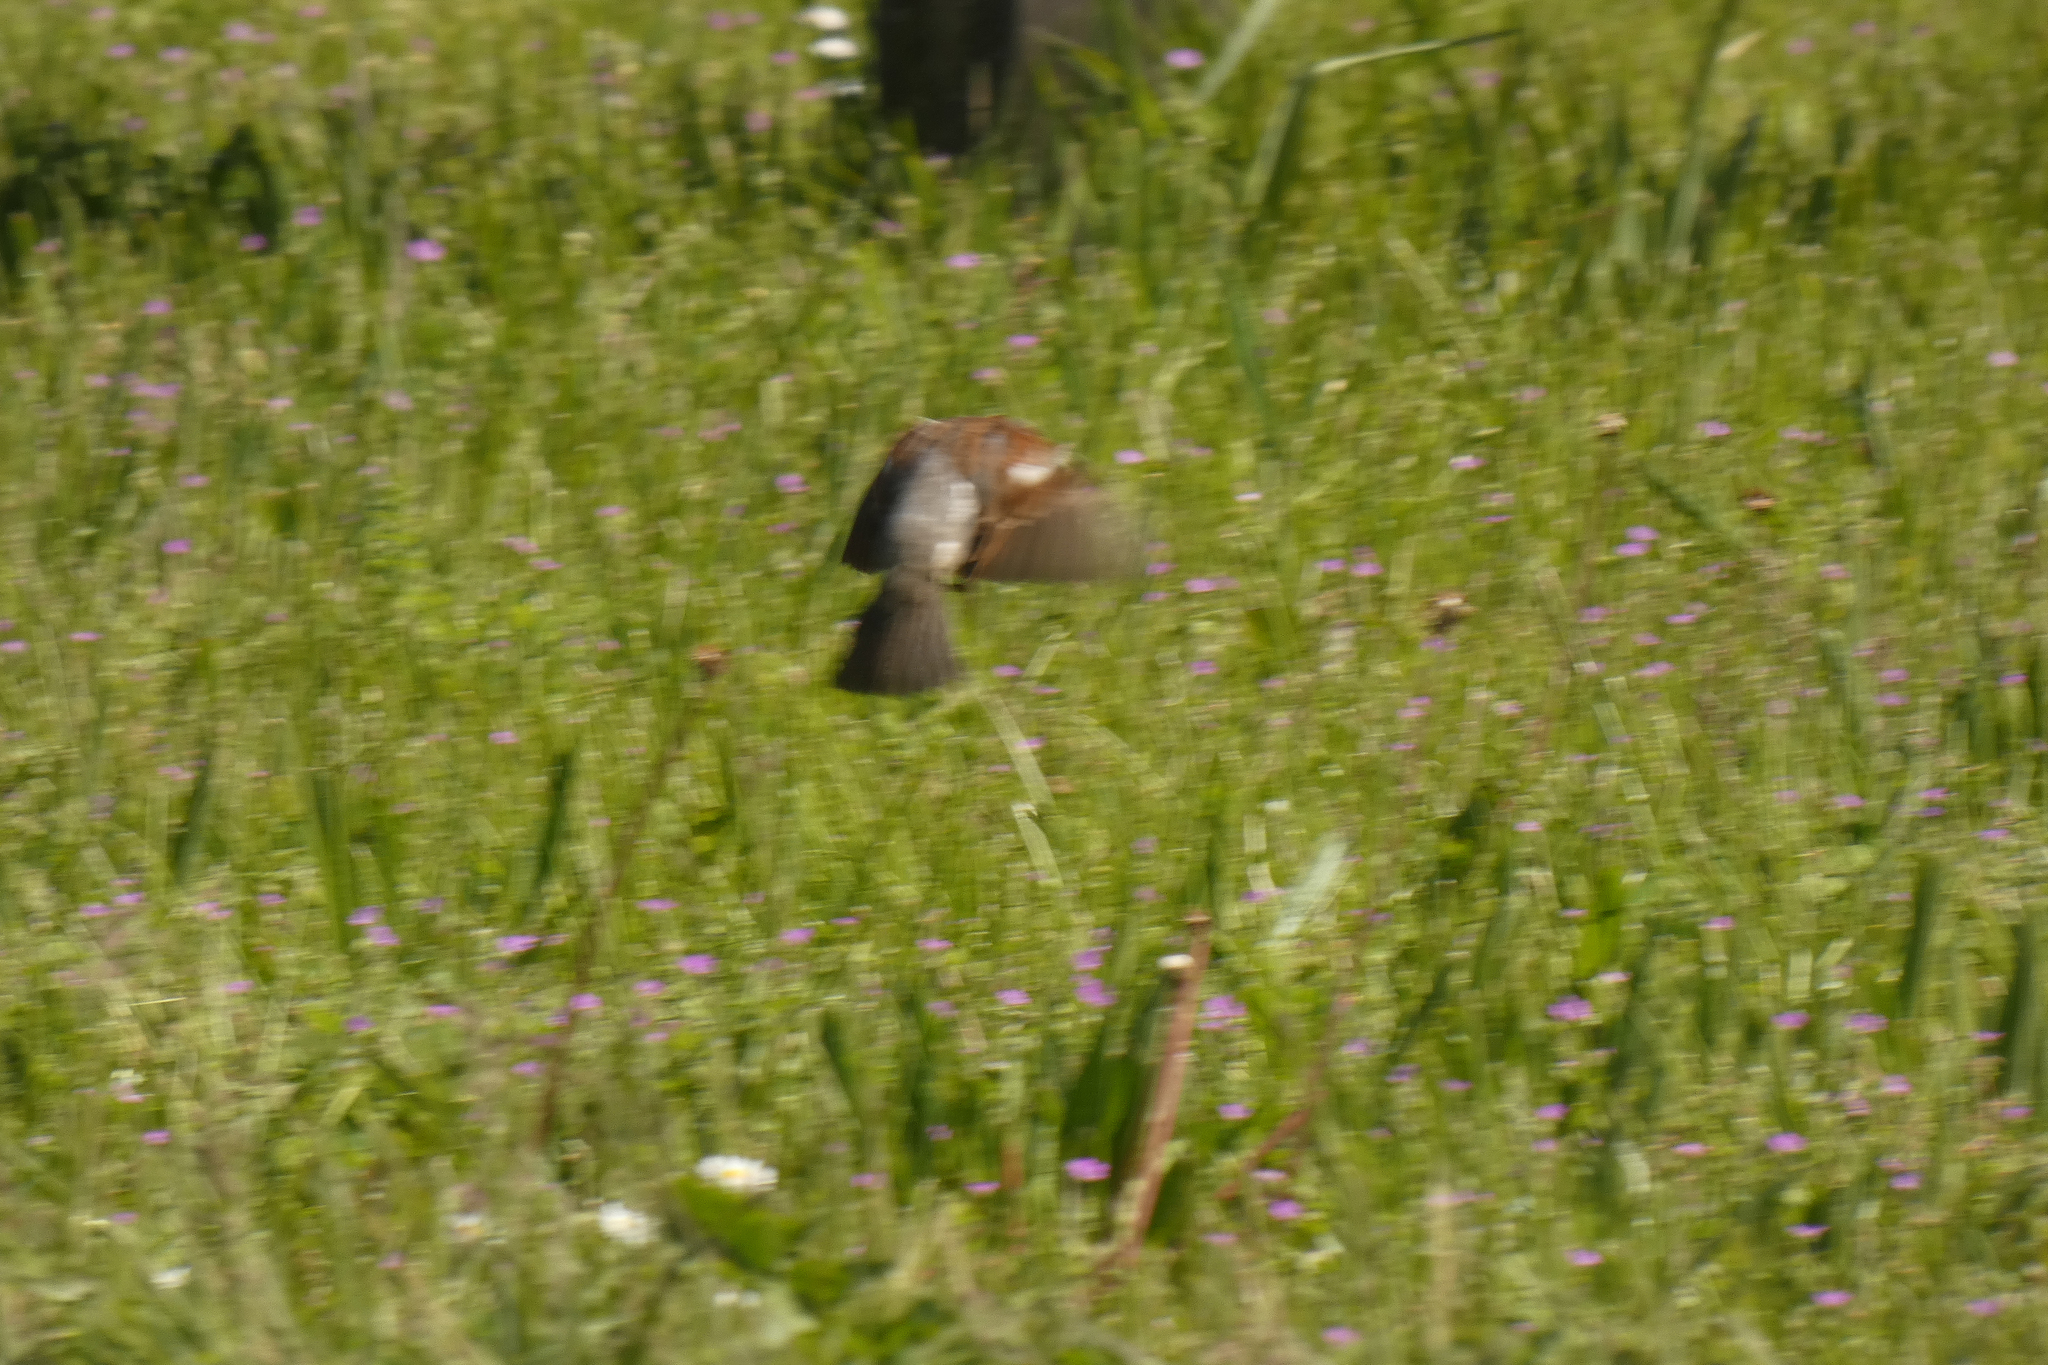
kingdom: Animalia
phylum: Chordata
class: Aves
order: Passeriformes
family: Passeridae
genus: Passer
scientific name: Passer domesticus
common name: House sparrow
